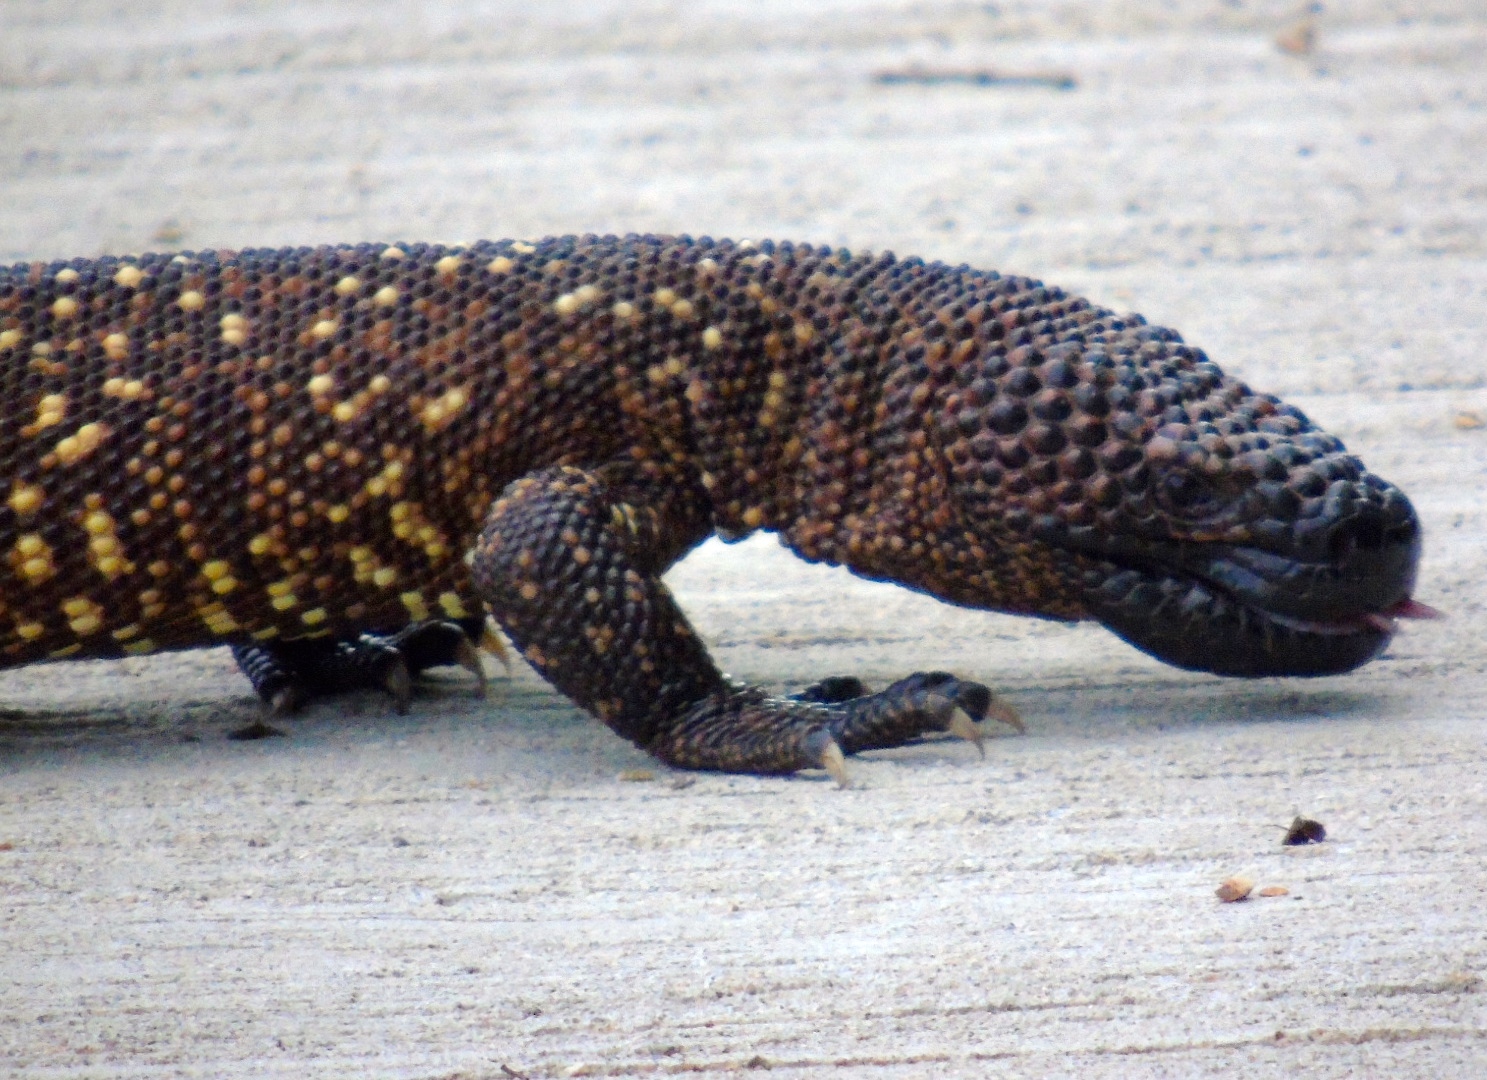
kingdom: Animalia
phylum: Chordata
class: Squamata
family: Helodermatidae
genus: Heloderma
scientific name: Heloderma horridum
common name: Mexican beaded lizard
